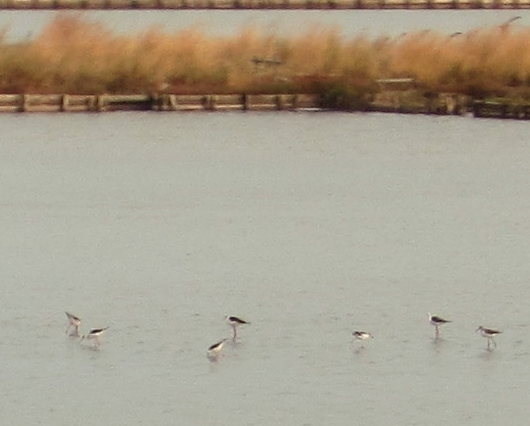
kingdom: Animalia
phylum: Chordata
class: Aves
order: Charadriiformes
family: Recurvirostridae
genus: Himantopus
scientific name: Himantopus himantopus
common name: Black-winged stilt
